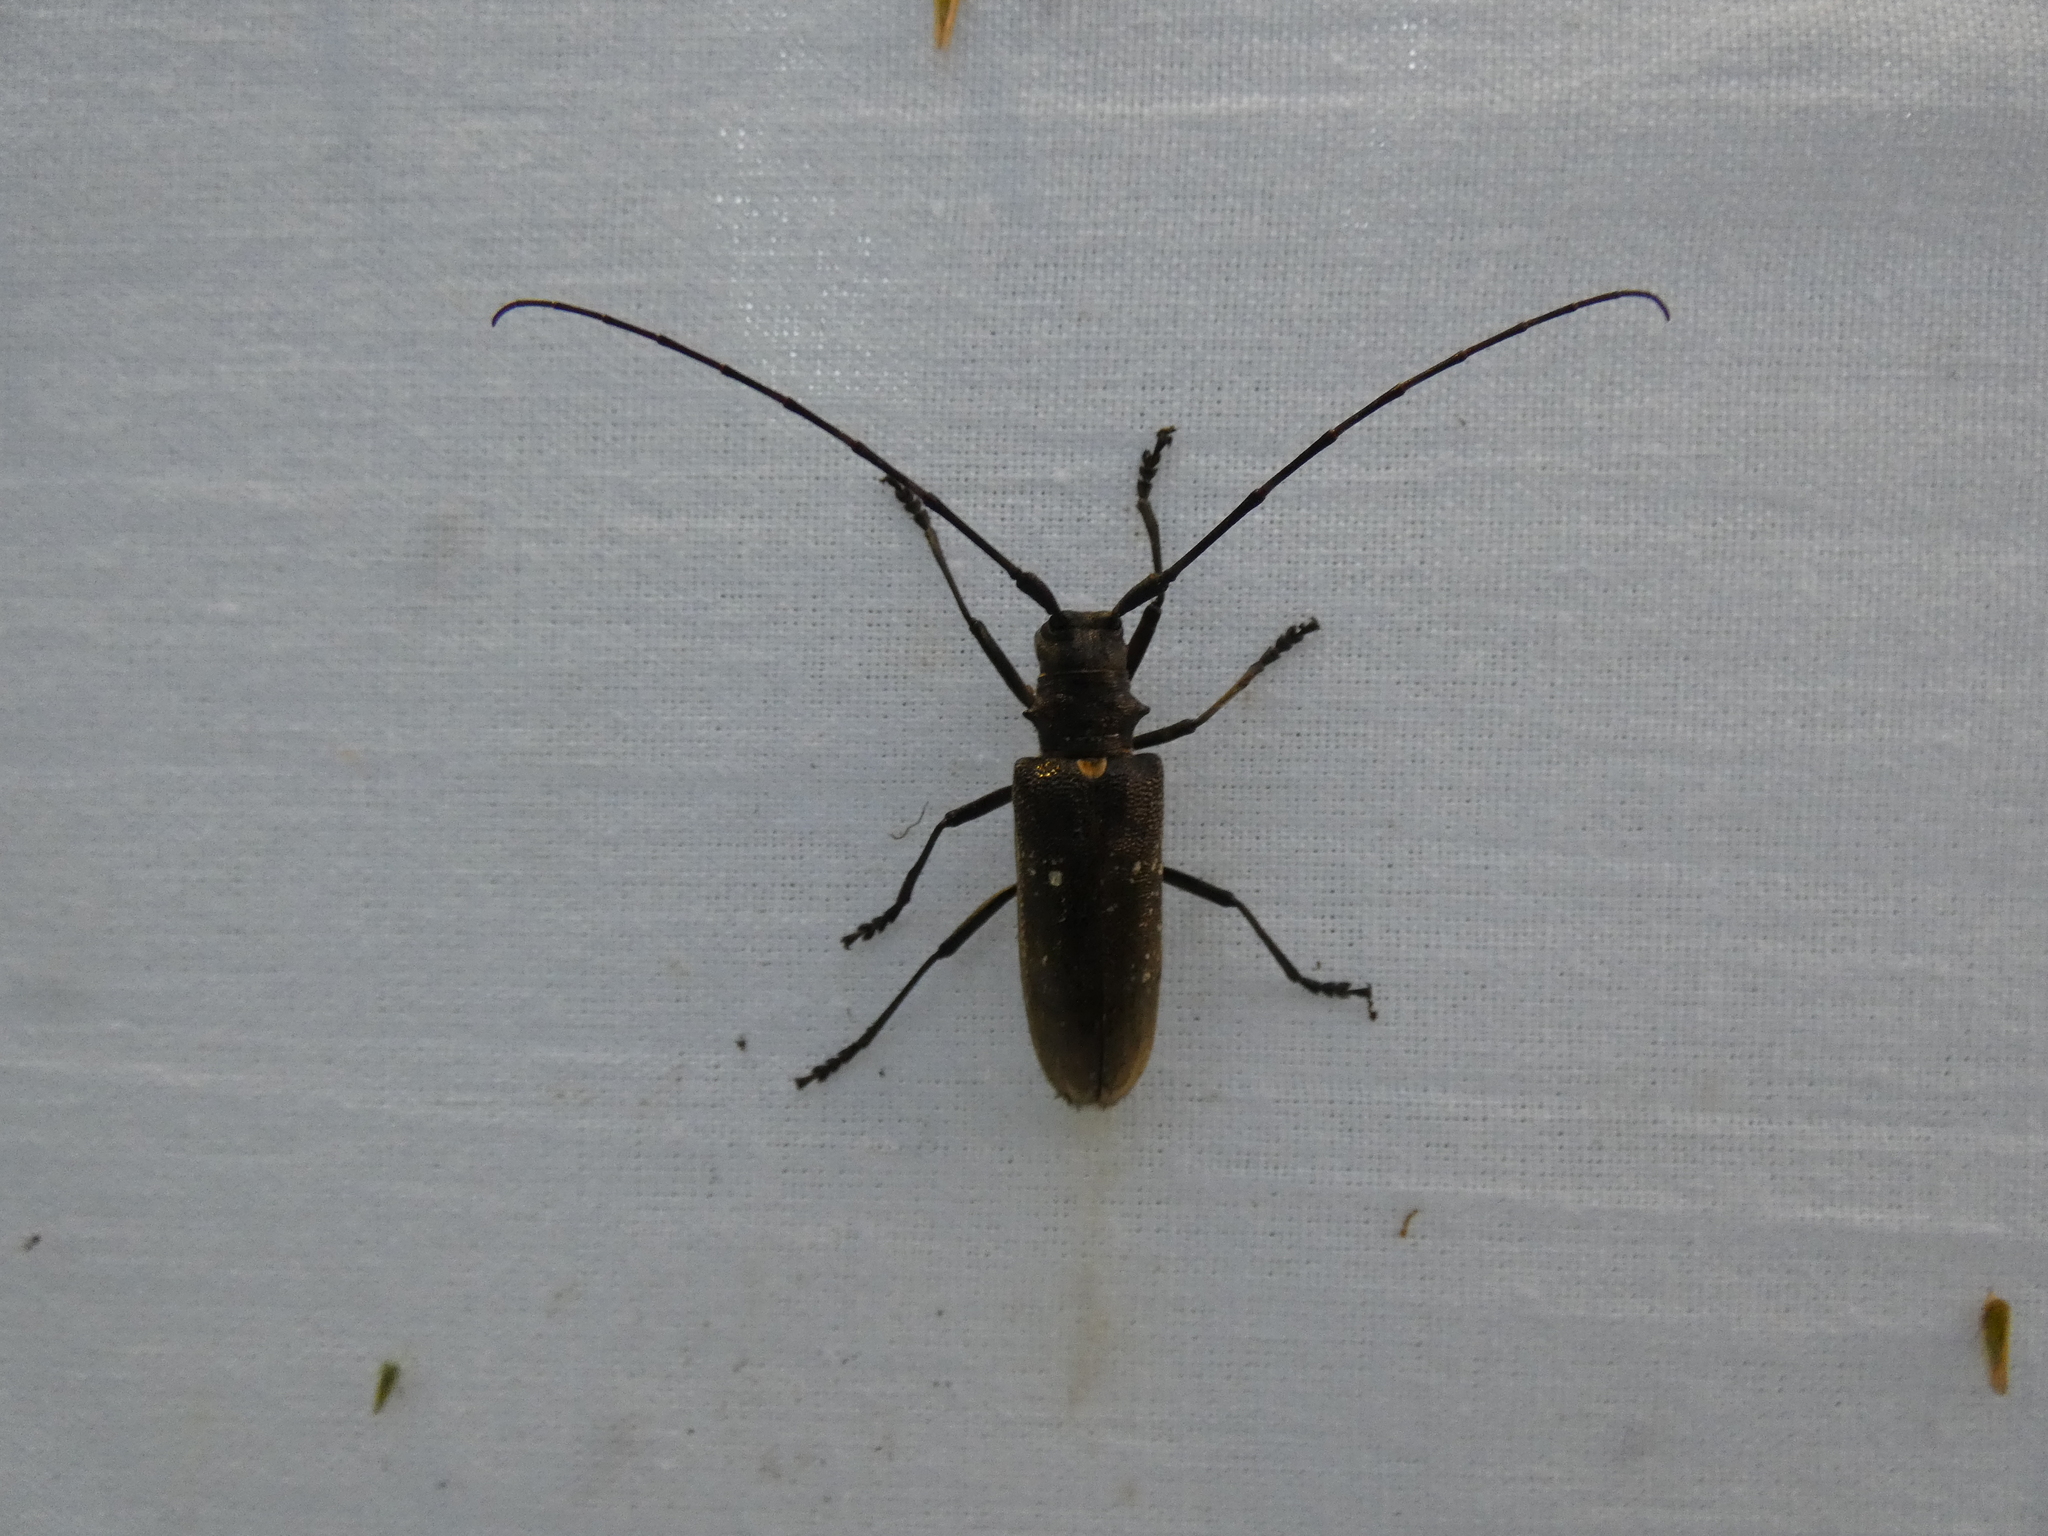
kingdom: Animalia
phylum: Arthropoda
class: Insecta
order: Coleoptera
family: Cerambycidae
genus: Monochamus
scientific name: Monochamus sartor
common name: Pine sawyer
